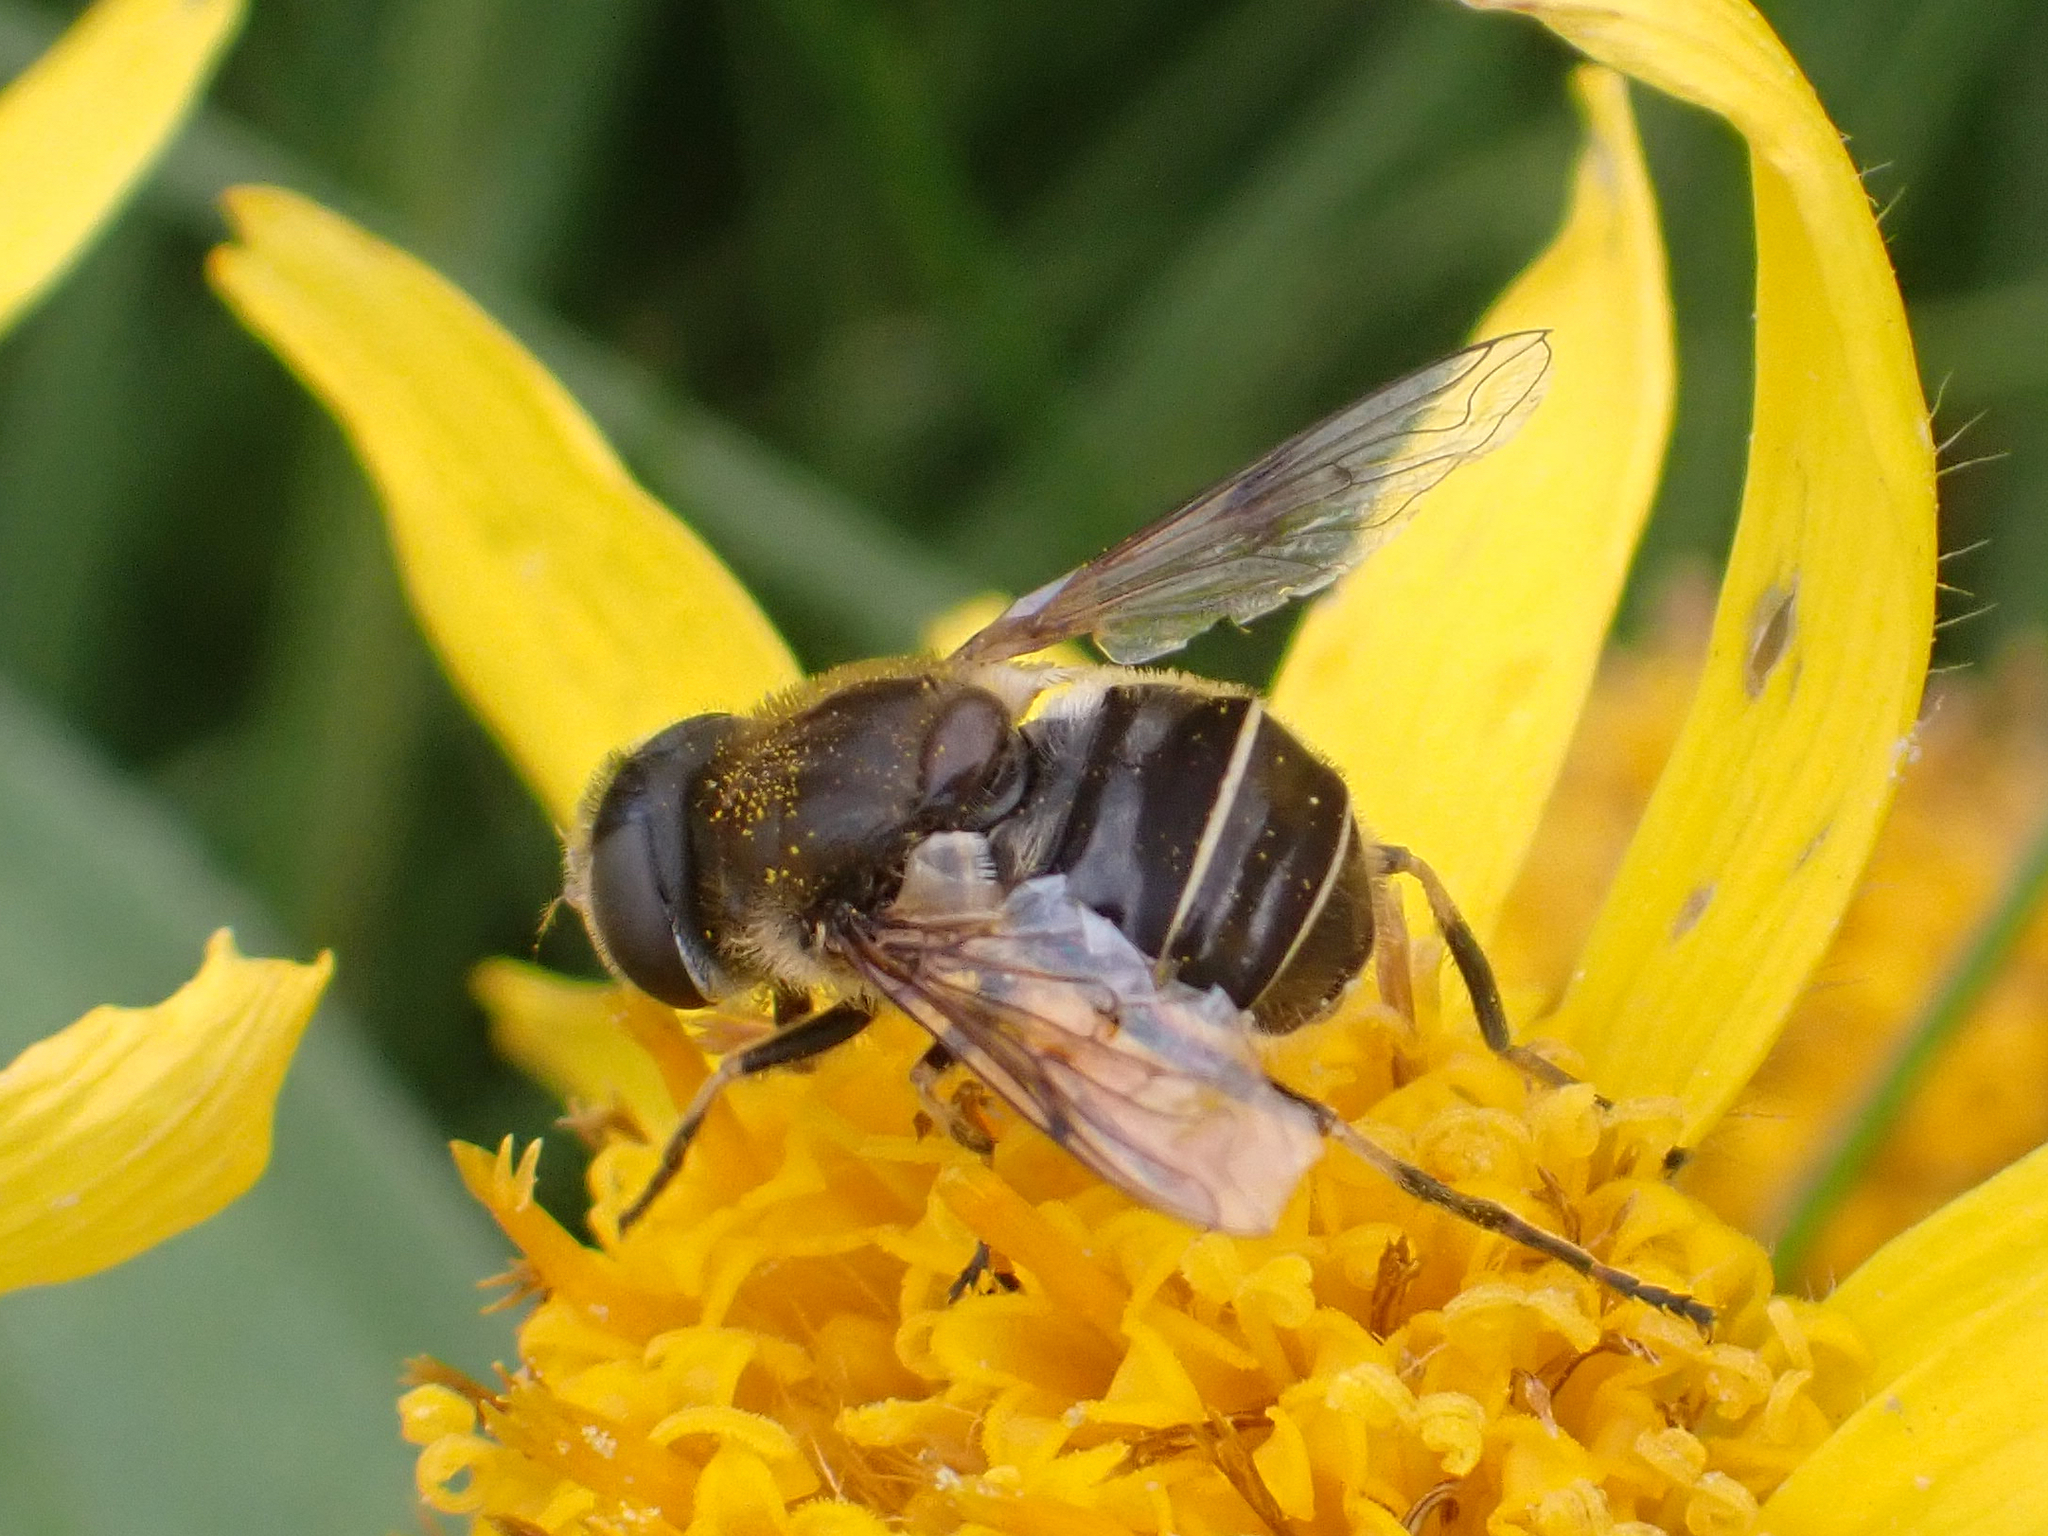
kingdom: Animalia
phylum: Arthropoda
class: Insecta
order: Diptera
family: Syrphidae
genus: Eristalis
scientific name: Eristalis obscura
